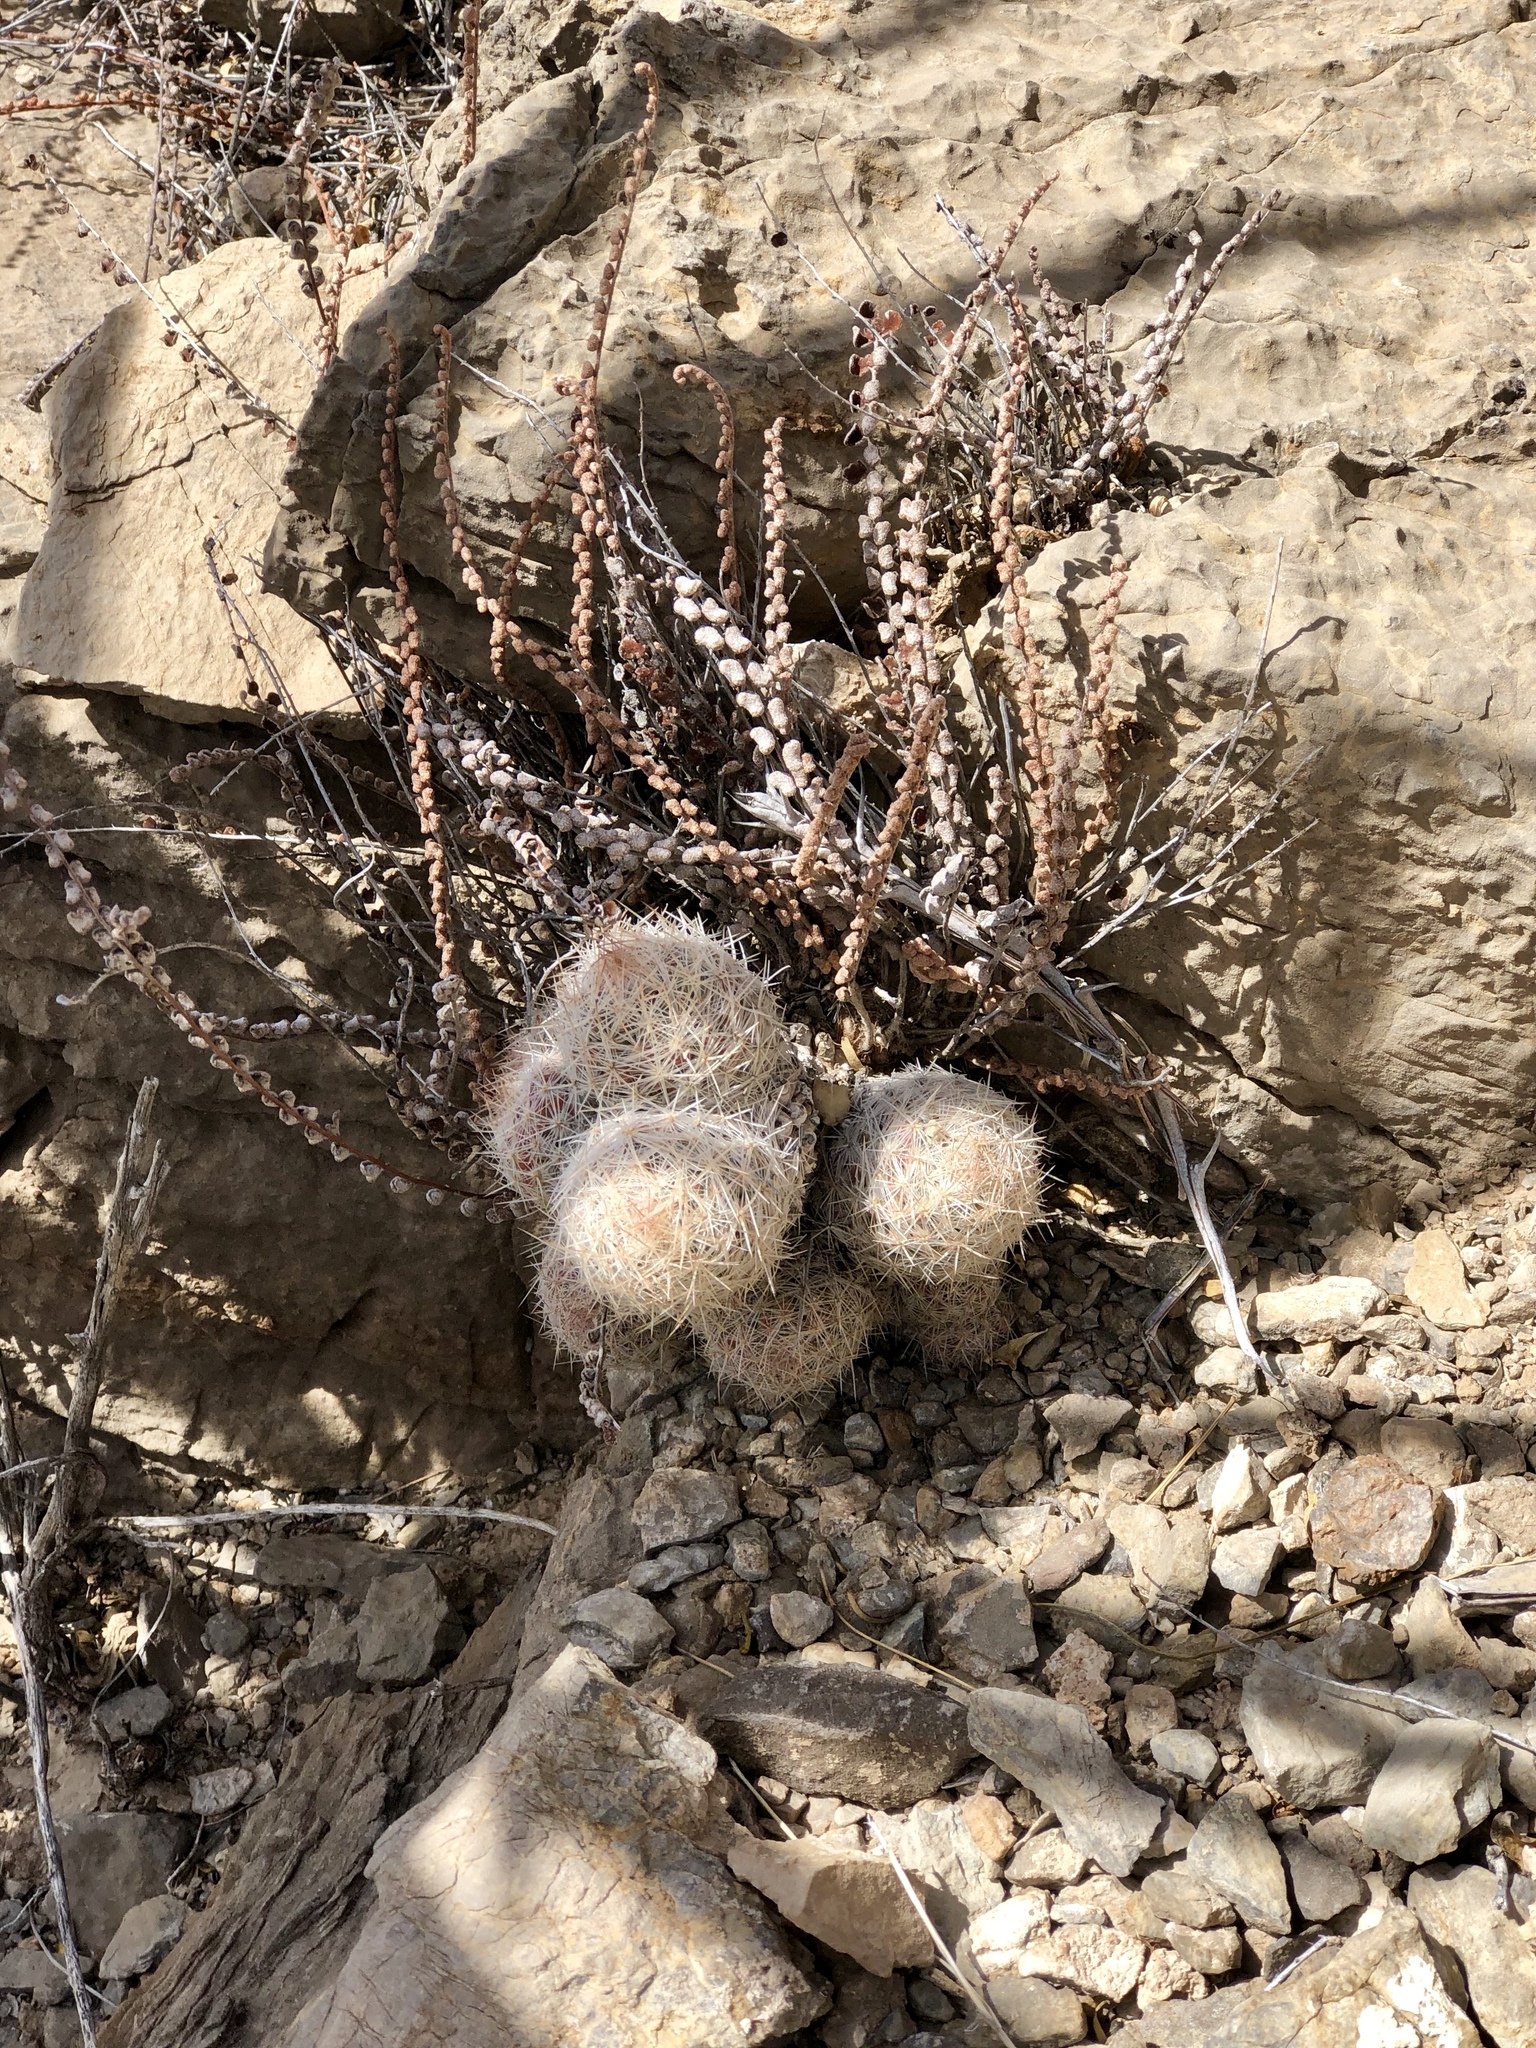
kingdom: Plantae
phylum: Tracheophyta
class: Magnoliopsida
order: Caryophyllales
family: Cactaceae
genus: Pelecyphora
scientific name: Pelecyphora tuberculosa
